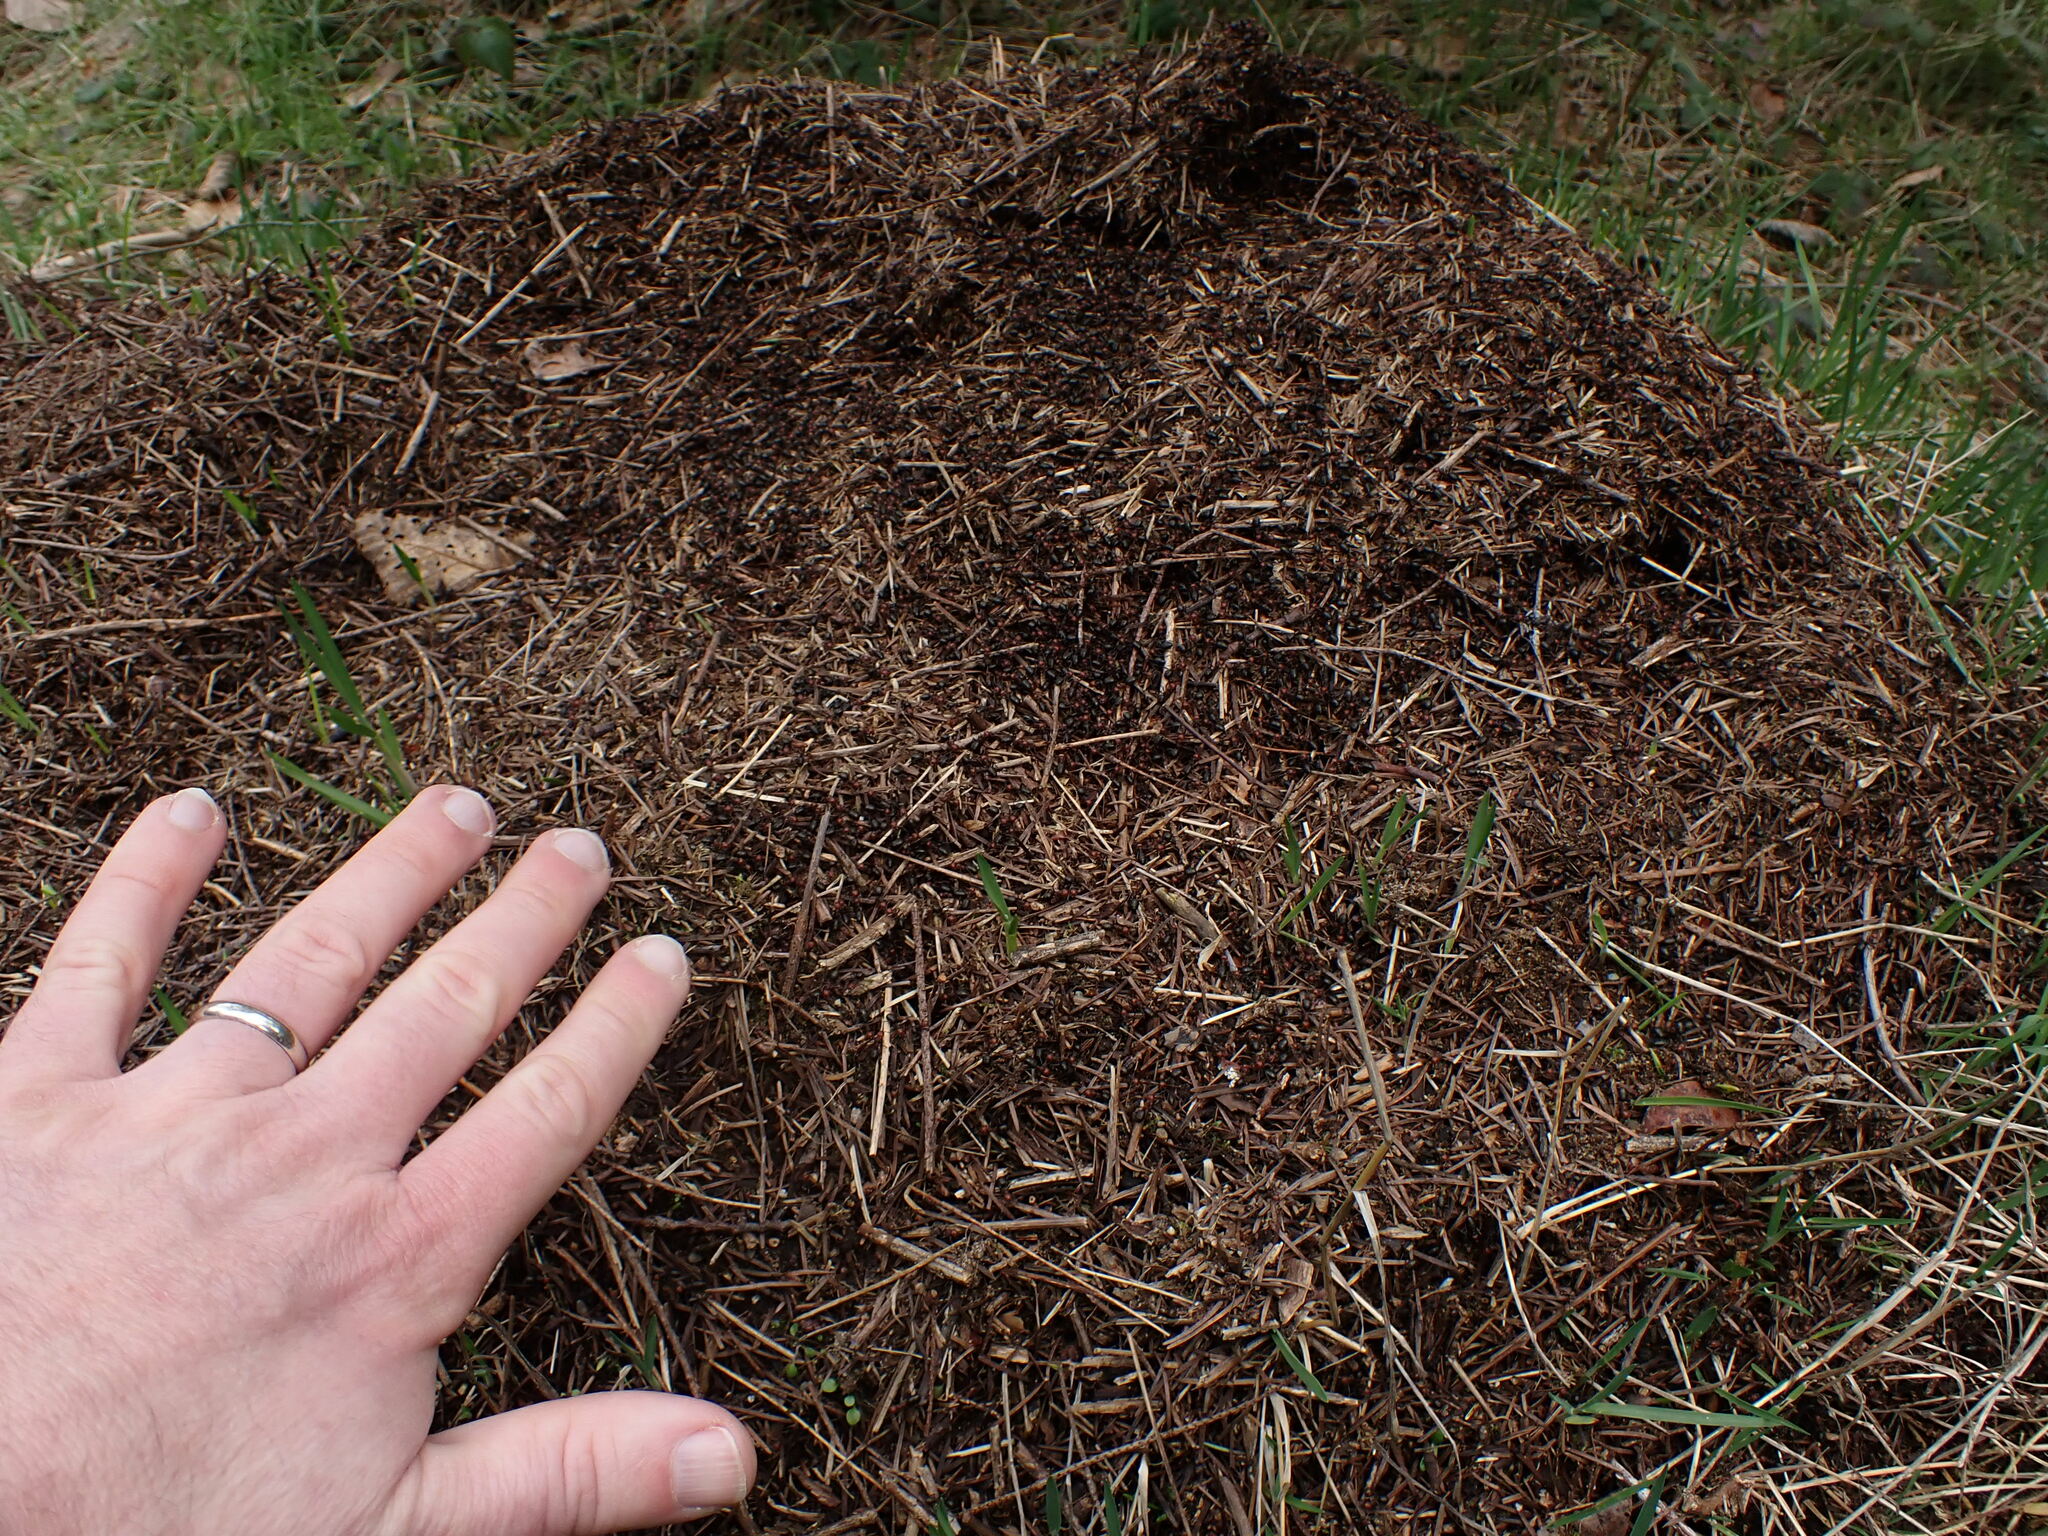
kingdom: Animalia
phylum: Arthropoda
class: Insecta
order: Hymenoptera
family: Formicidae
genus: Formica
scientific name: Formica obscuripes
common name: Western thatching ant
